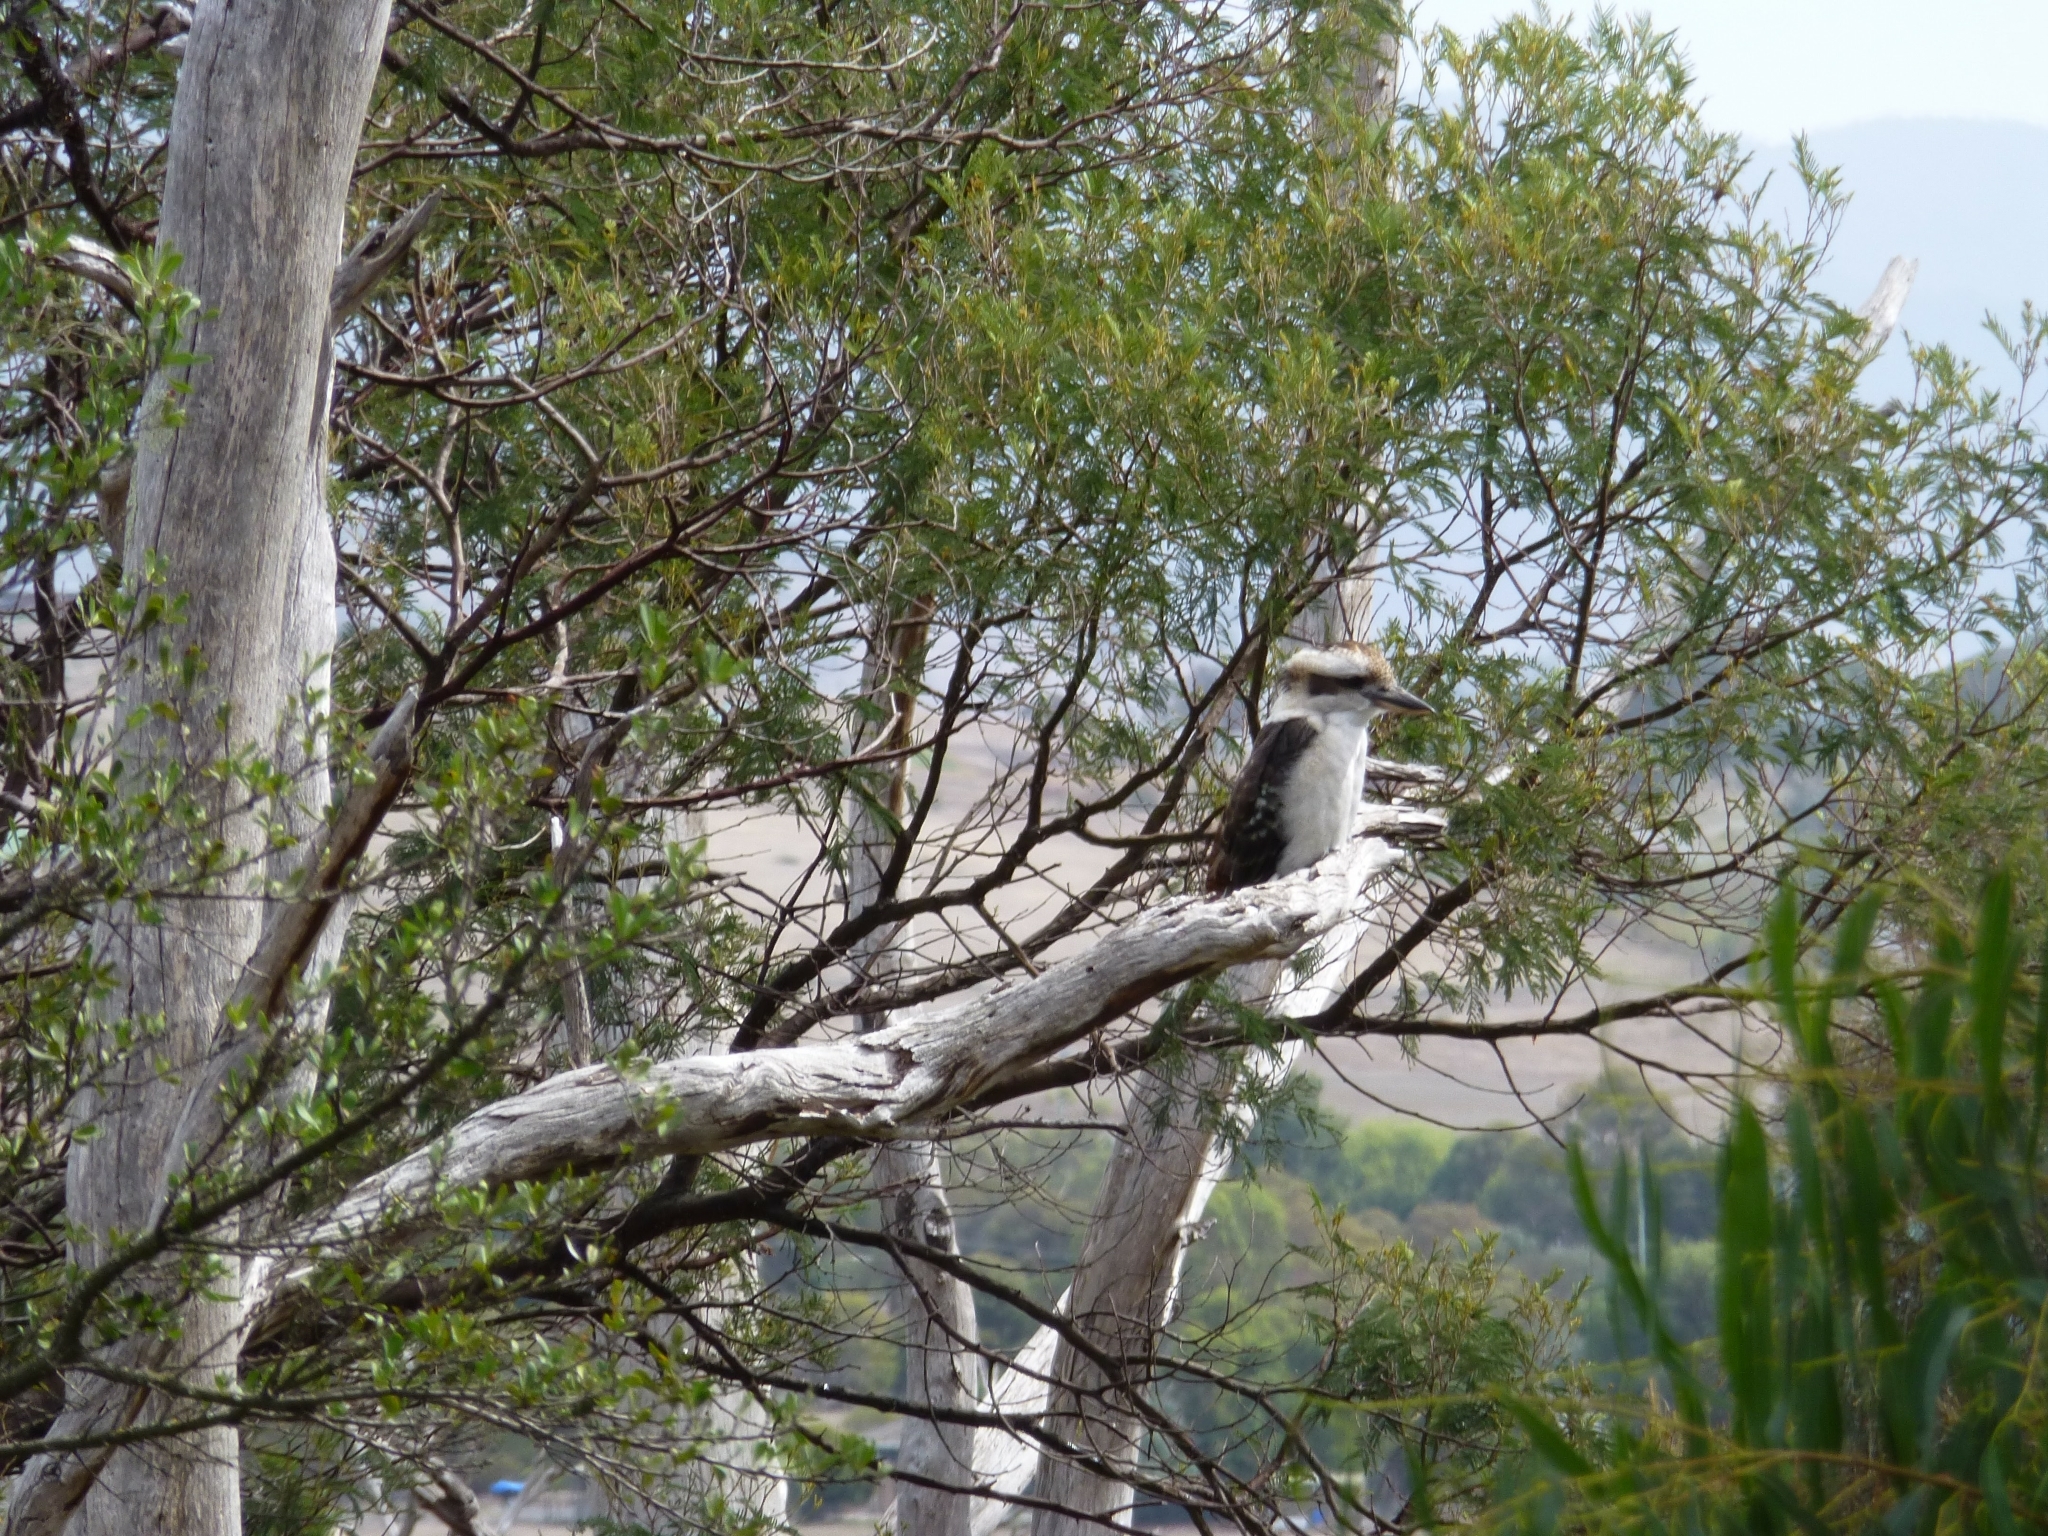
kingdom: Animalia
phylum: Chordata
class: Aves
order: Coraciiformes
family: Alcedinidae
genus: Dacelo
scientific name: Dacelo novaeguineae
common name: Laughing kookaburra
